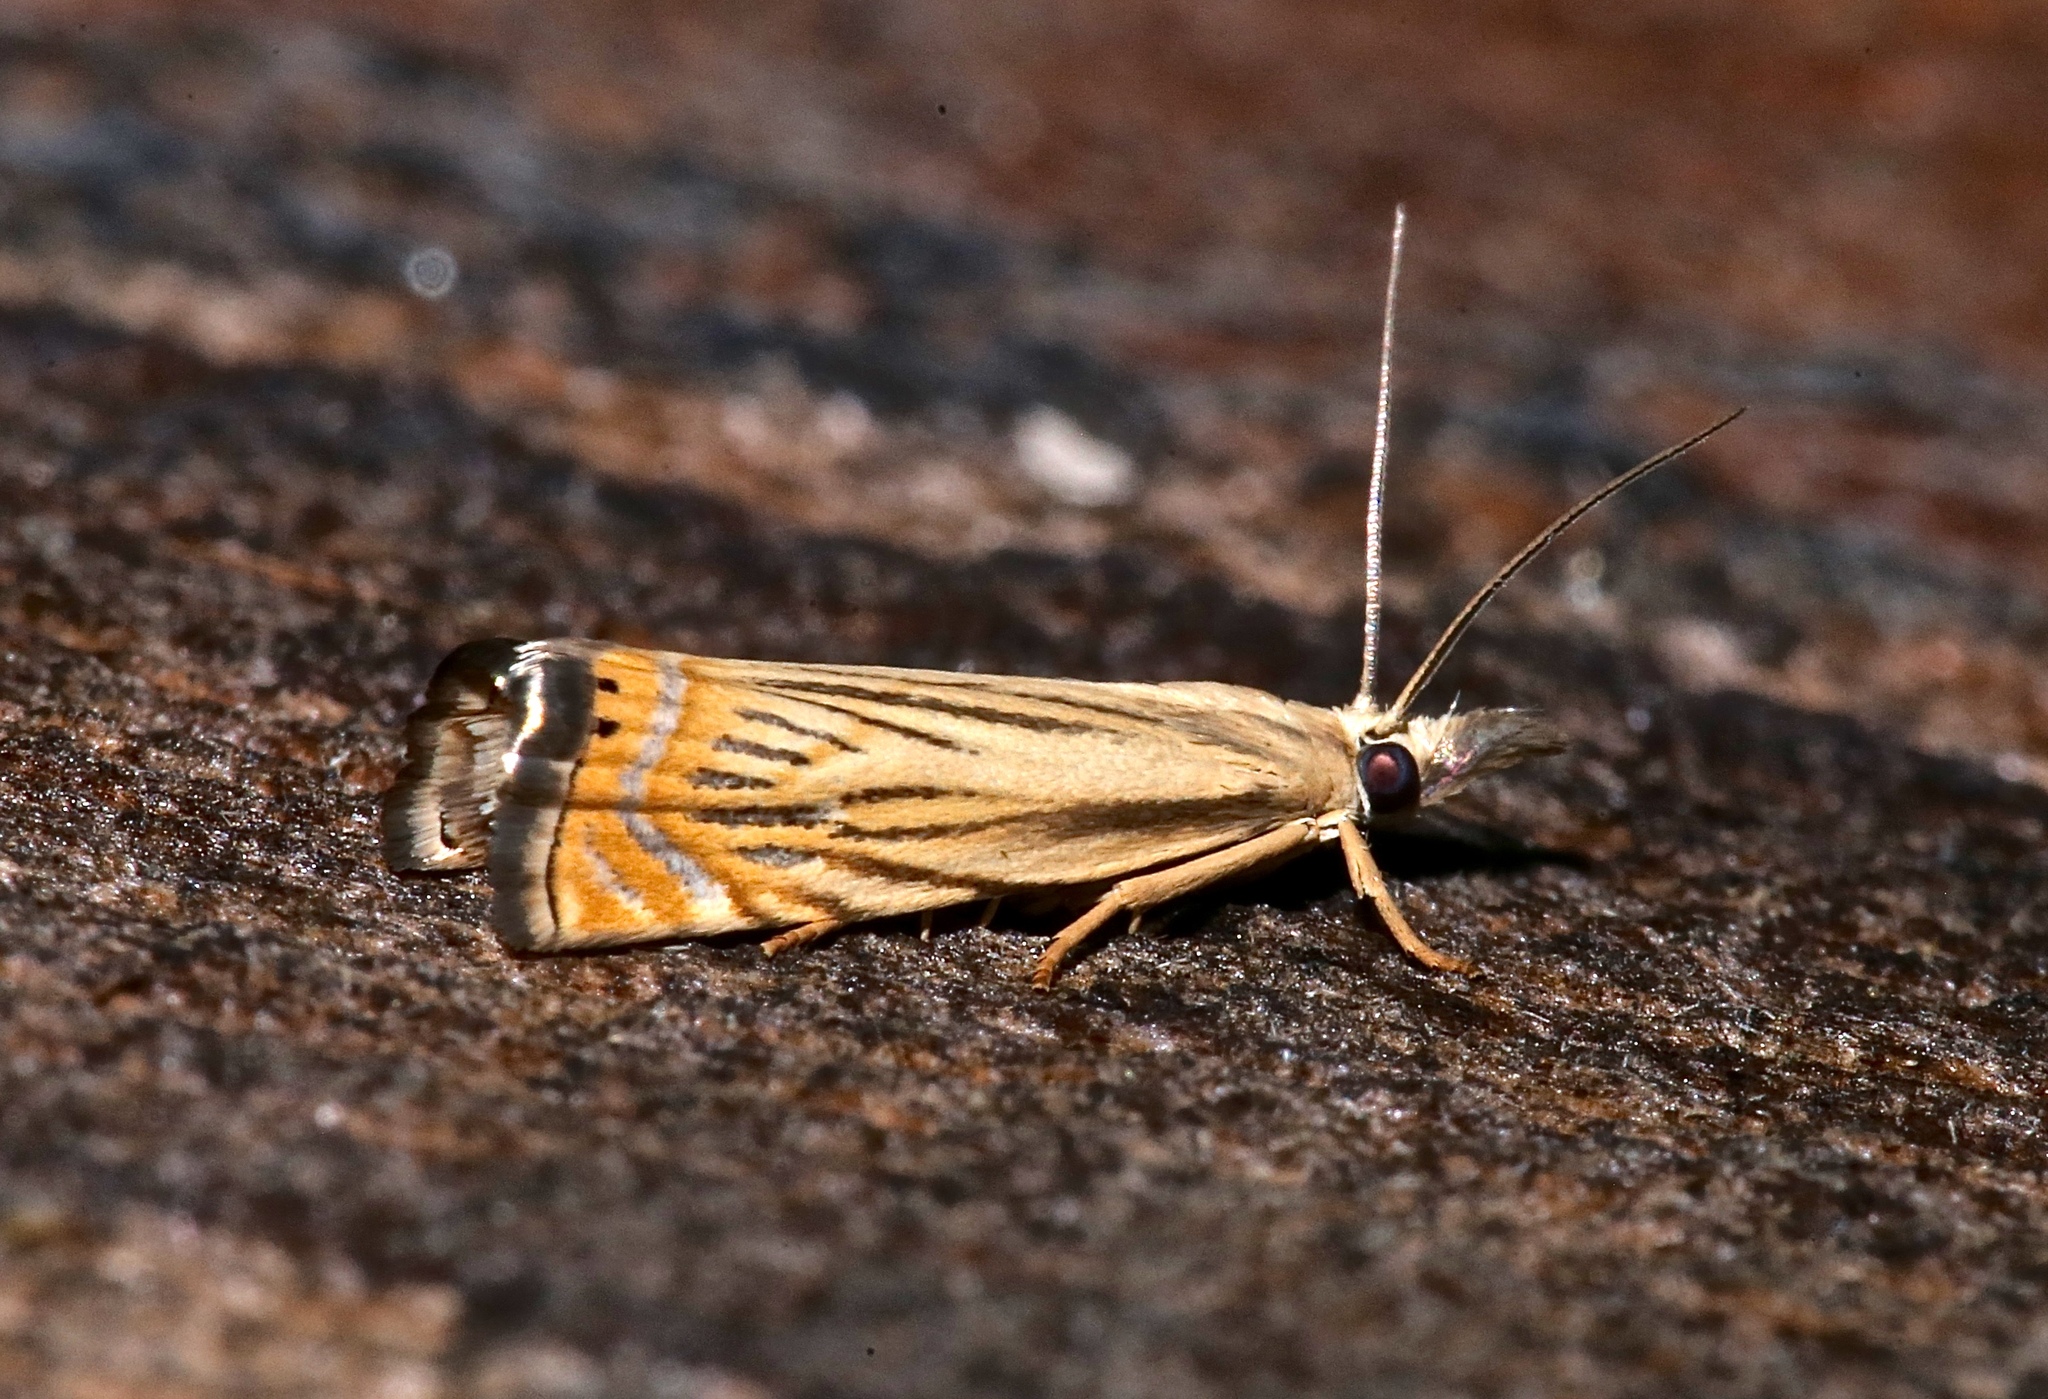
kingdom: Animalia
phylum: Arthropoda
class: Insecta
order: Lepidoptera
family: Crambidae
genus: Chrysoteuchia
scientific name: Chrysoteuchia topiarius
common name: Topiary grass-veneer
